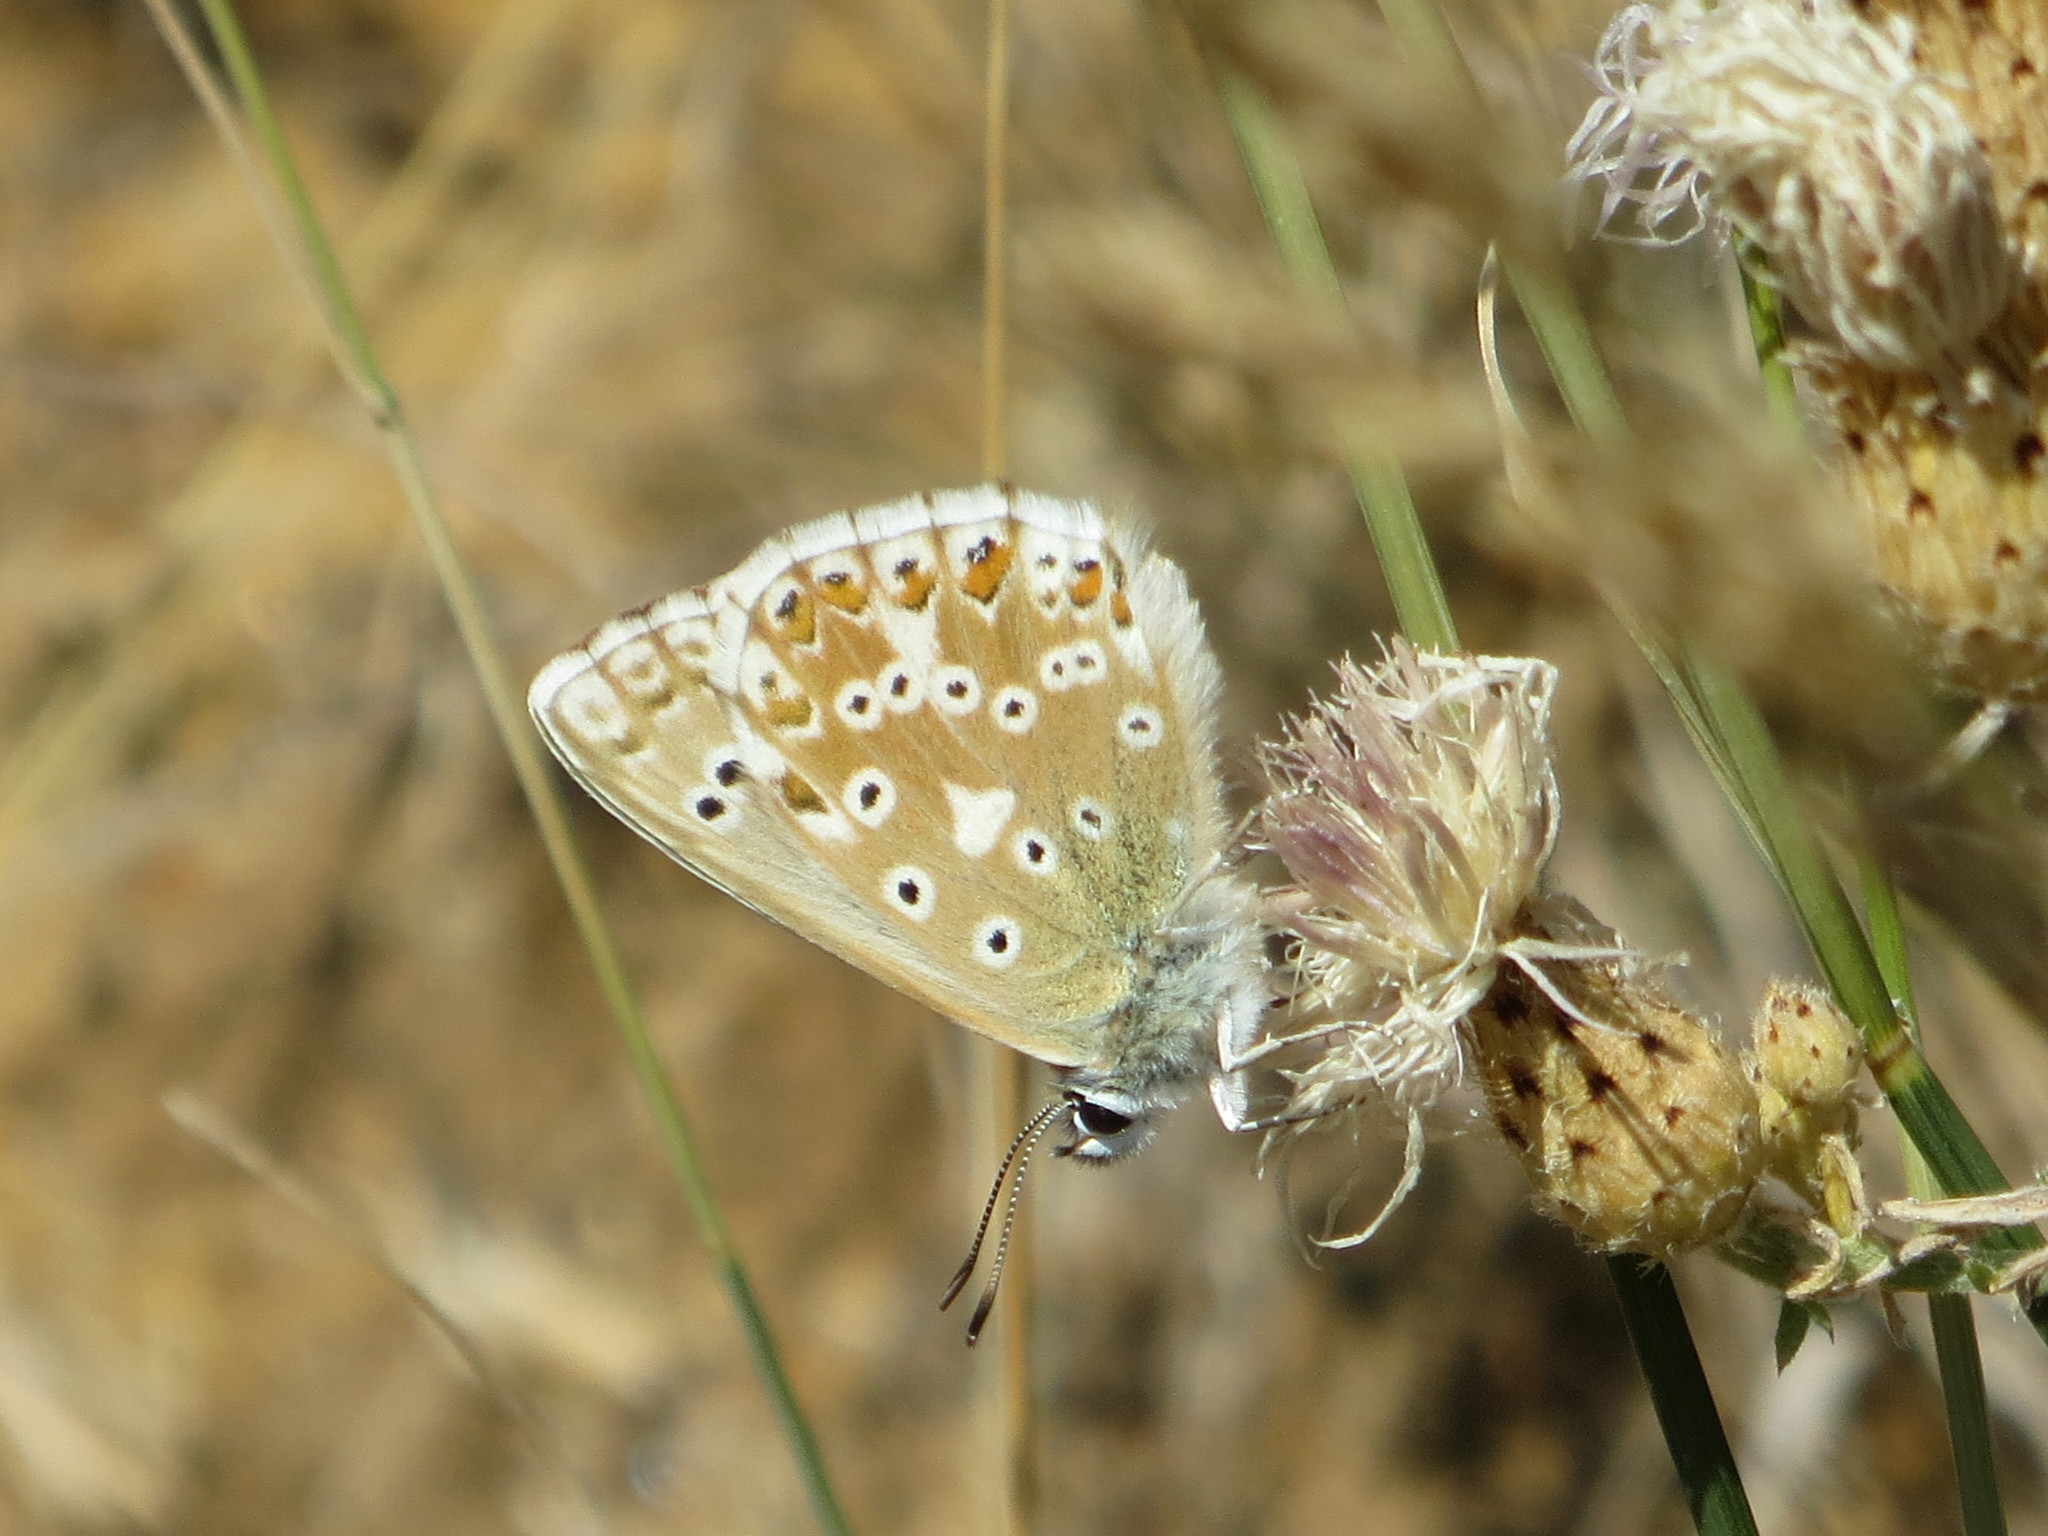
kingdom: Animalia
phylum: Arthropoda
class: Insecta
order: Lepidoptera
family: Lycaenidae
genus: Lysandra
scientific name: Lysandra coridon
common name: Chalkhill blue
